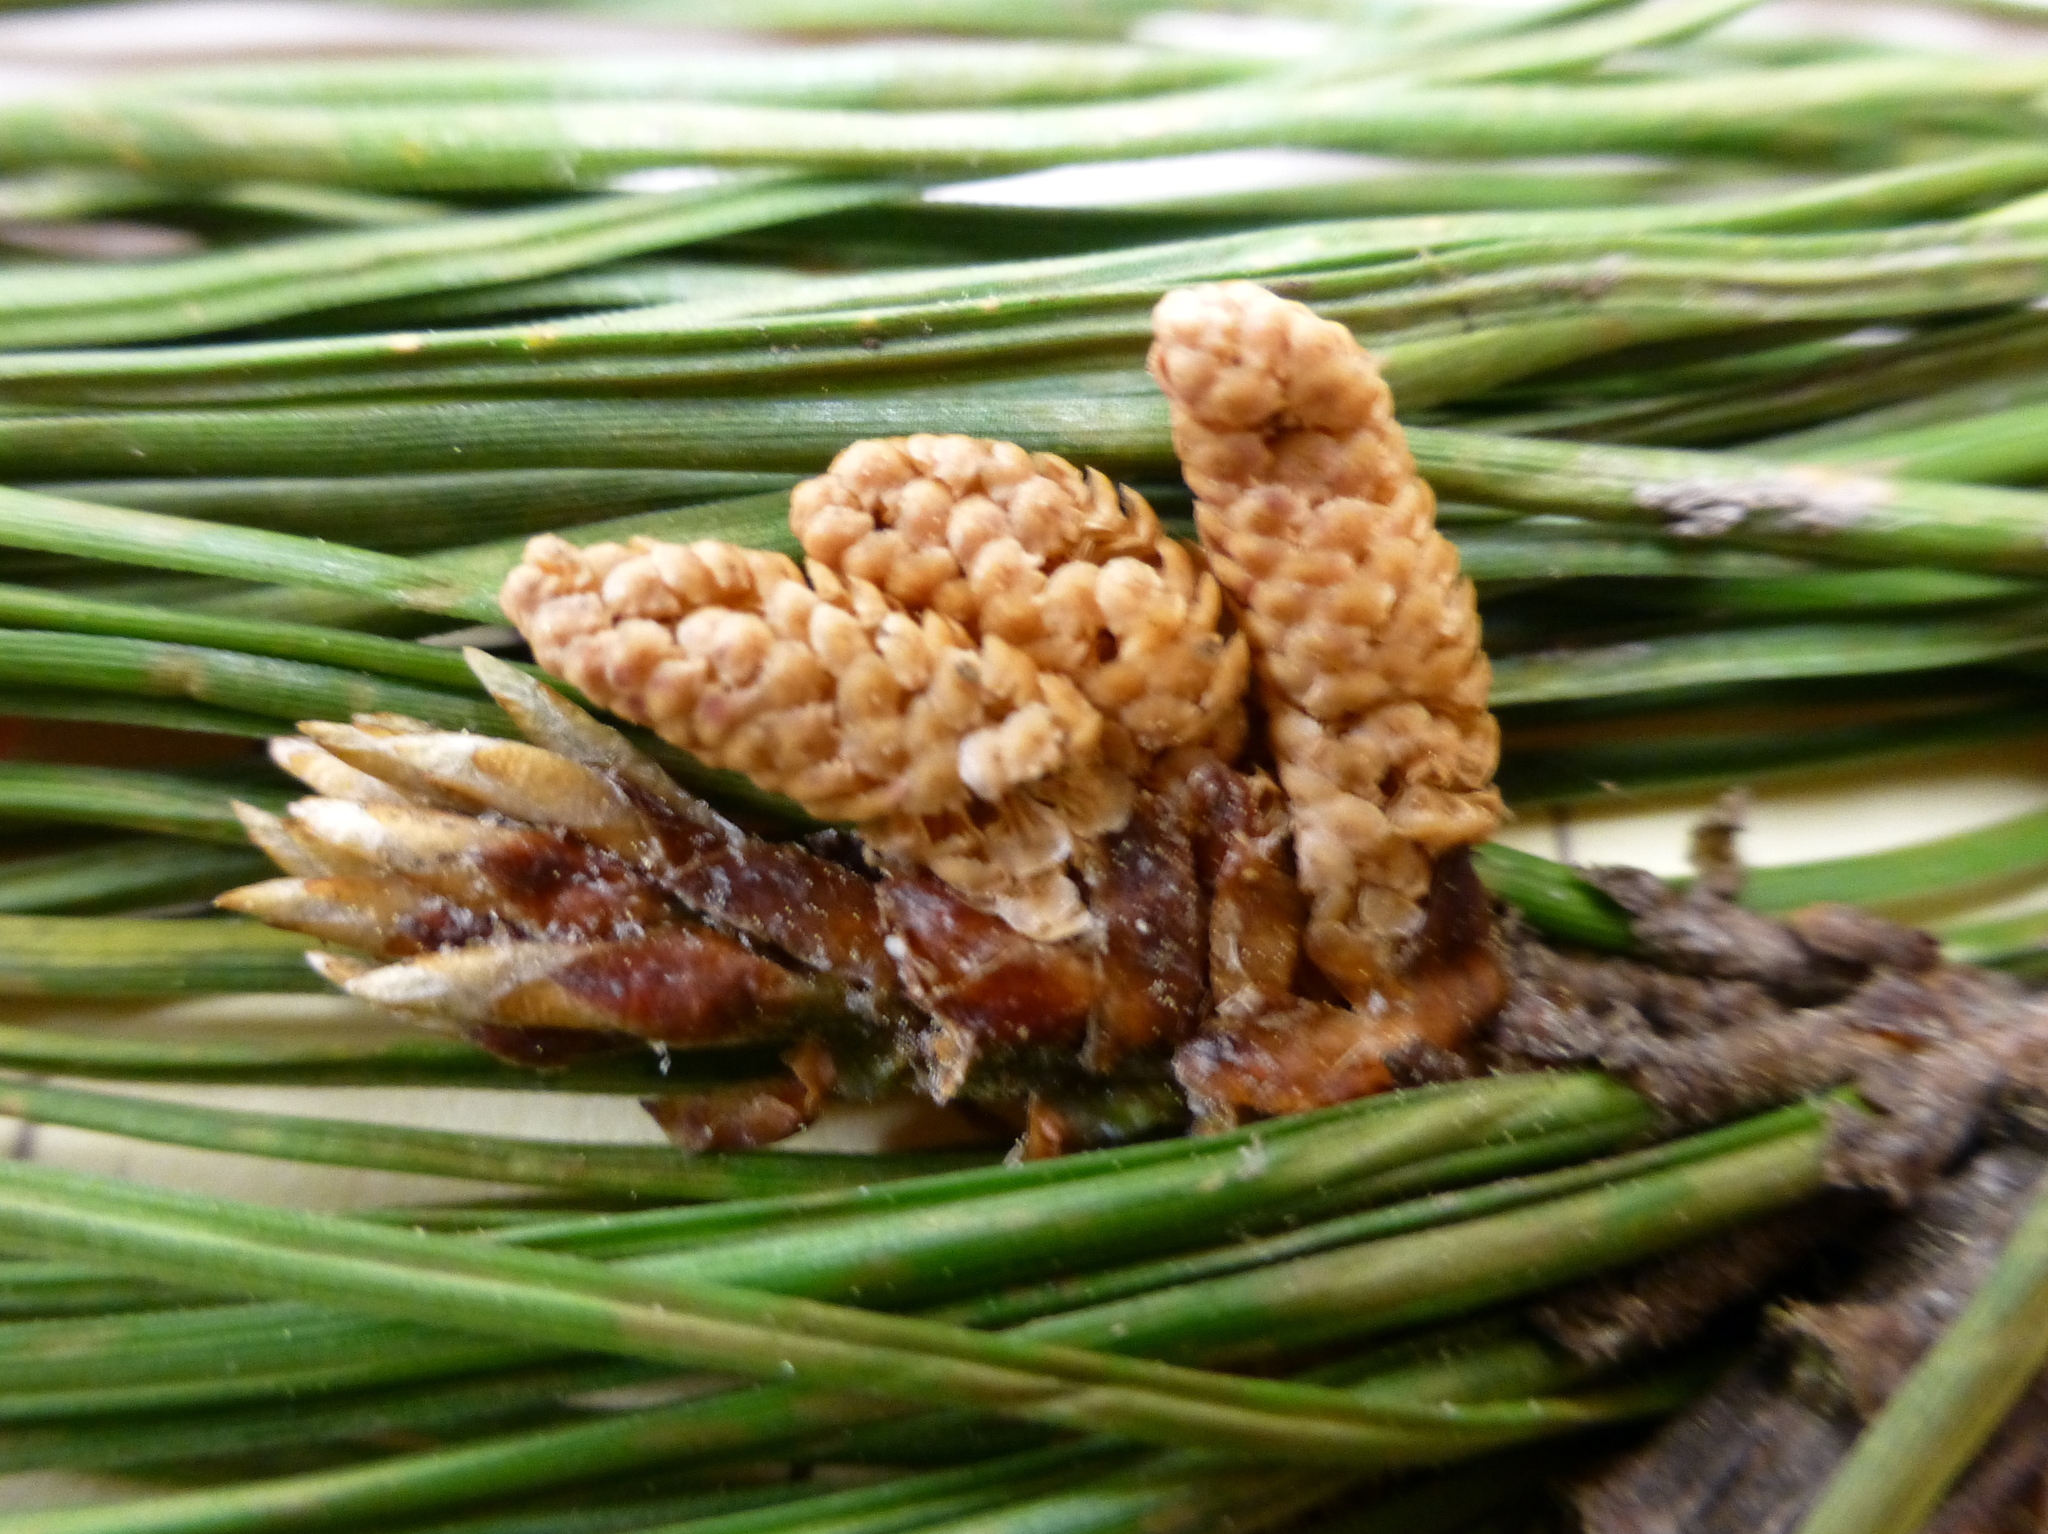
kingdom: Plantae
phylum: Tracheophyta
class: Pinopsida
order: Pinales
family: Pinaceae
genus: Pinus
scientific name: Pinus radiata
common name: Monterey pine
